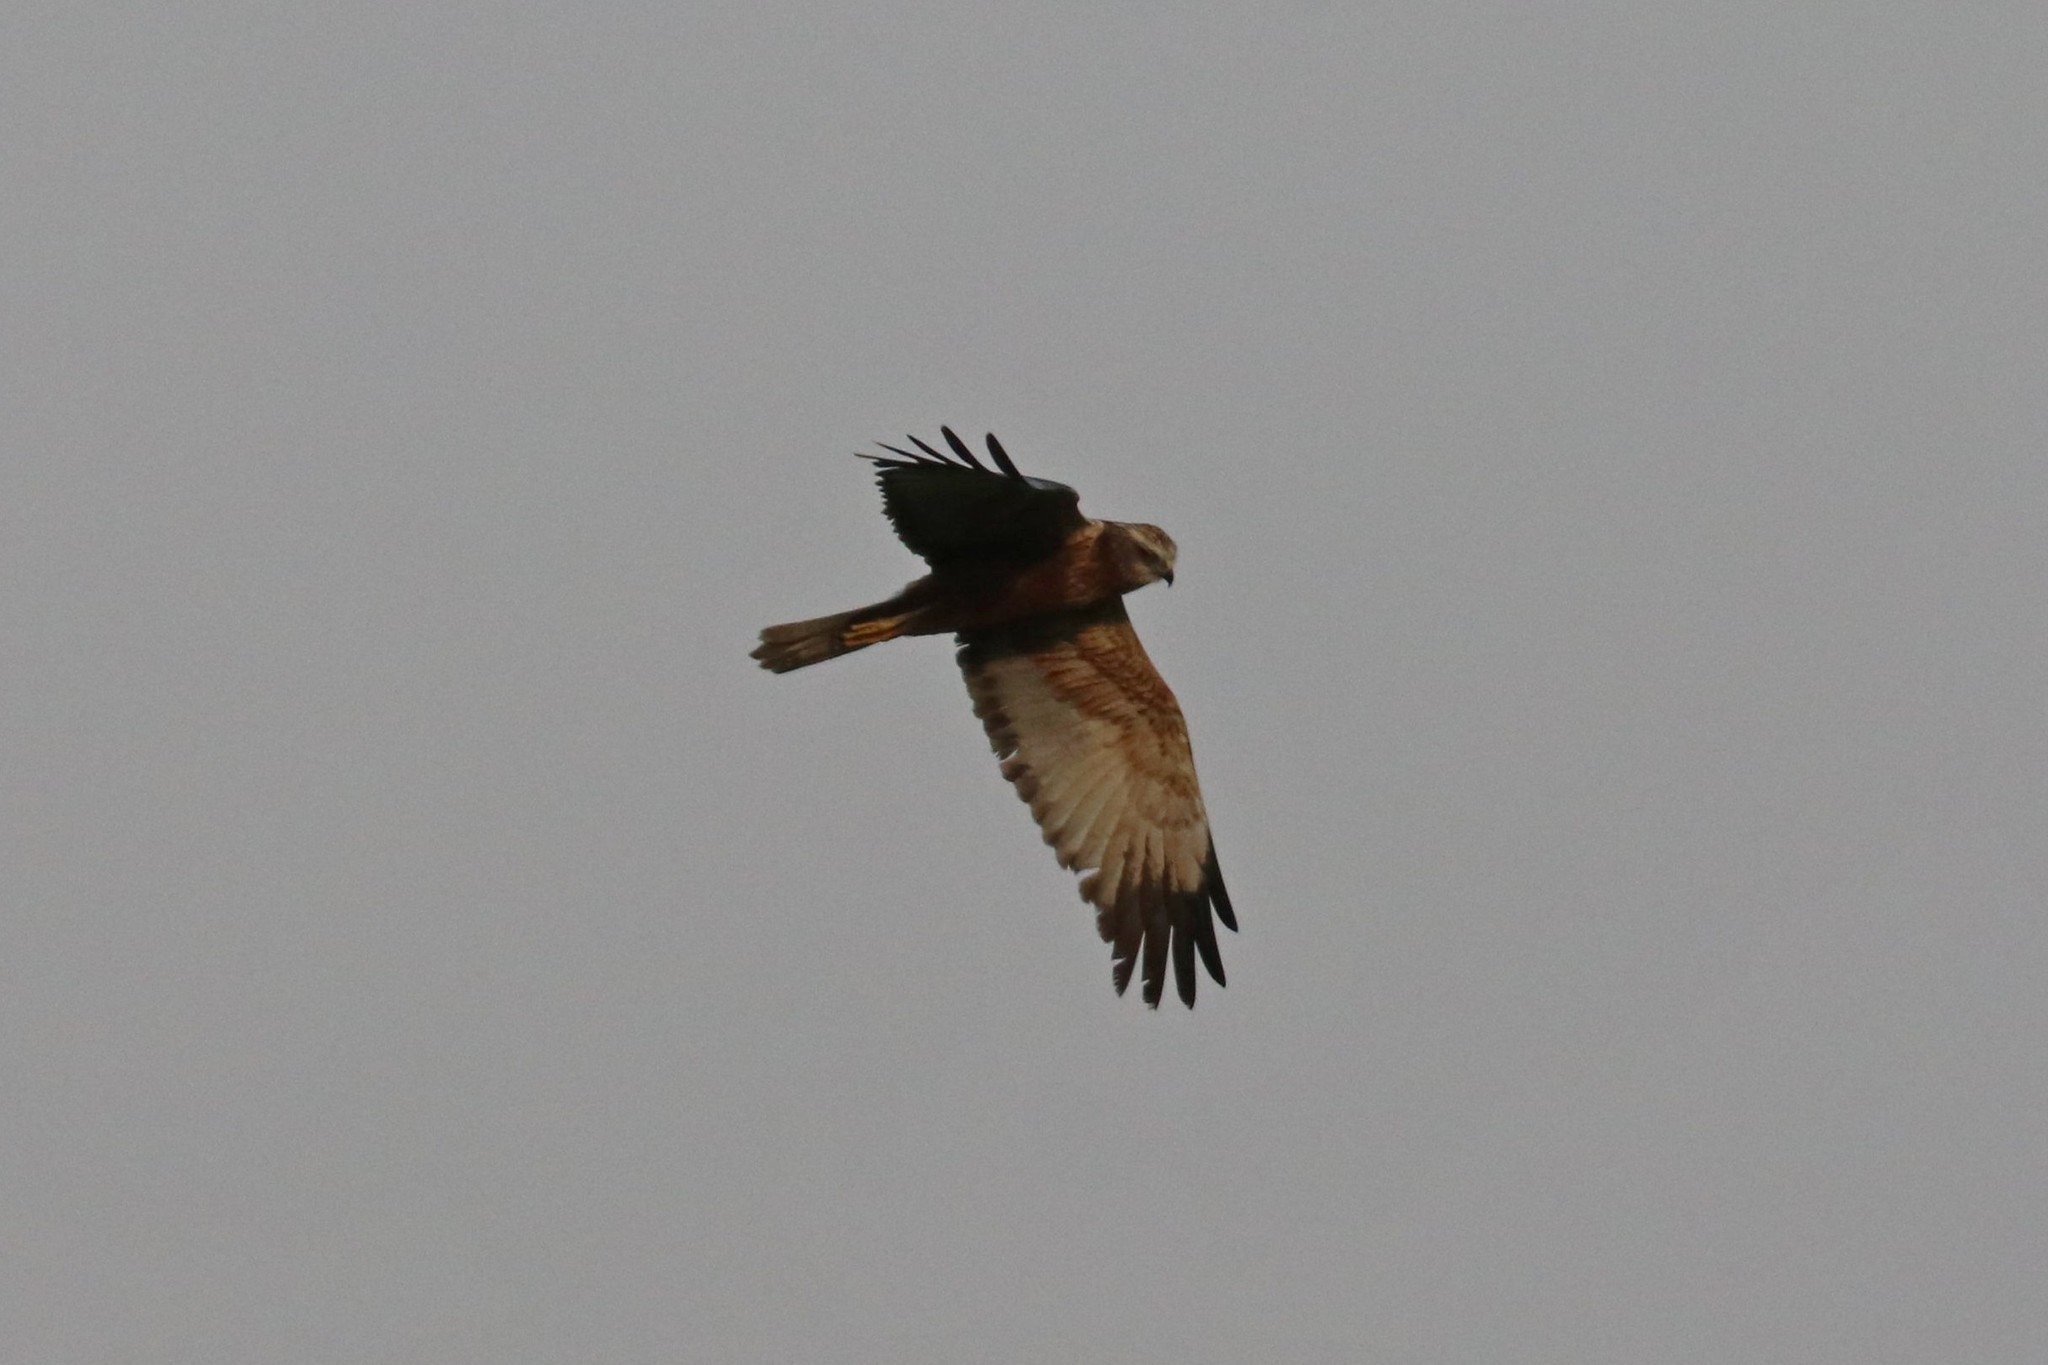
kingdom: Animalia
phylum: Chordata
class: Aves
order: Accipitriformes
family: Accipitridae
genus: Circus
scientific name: Circus aeruginosus
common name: Western marsh harrier
